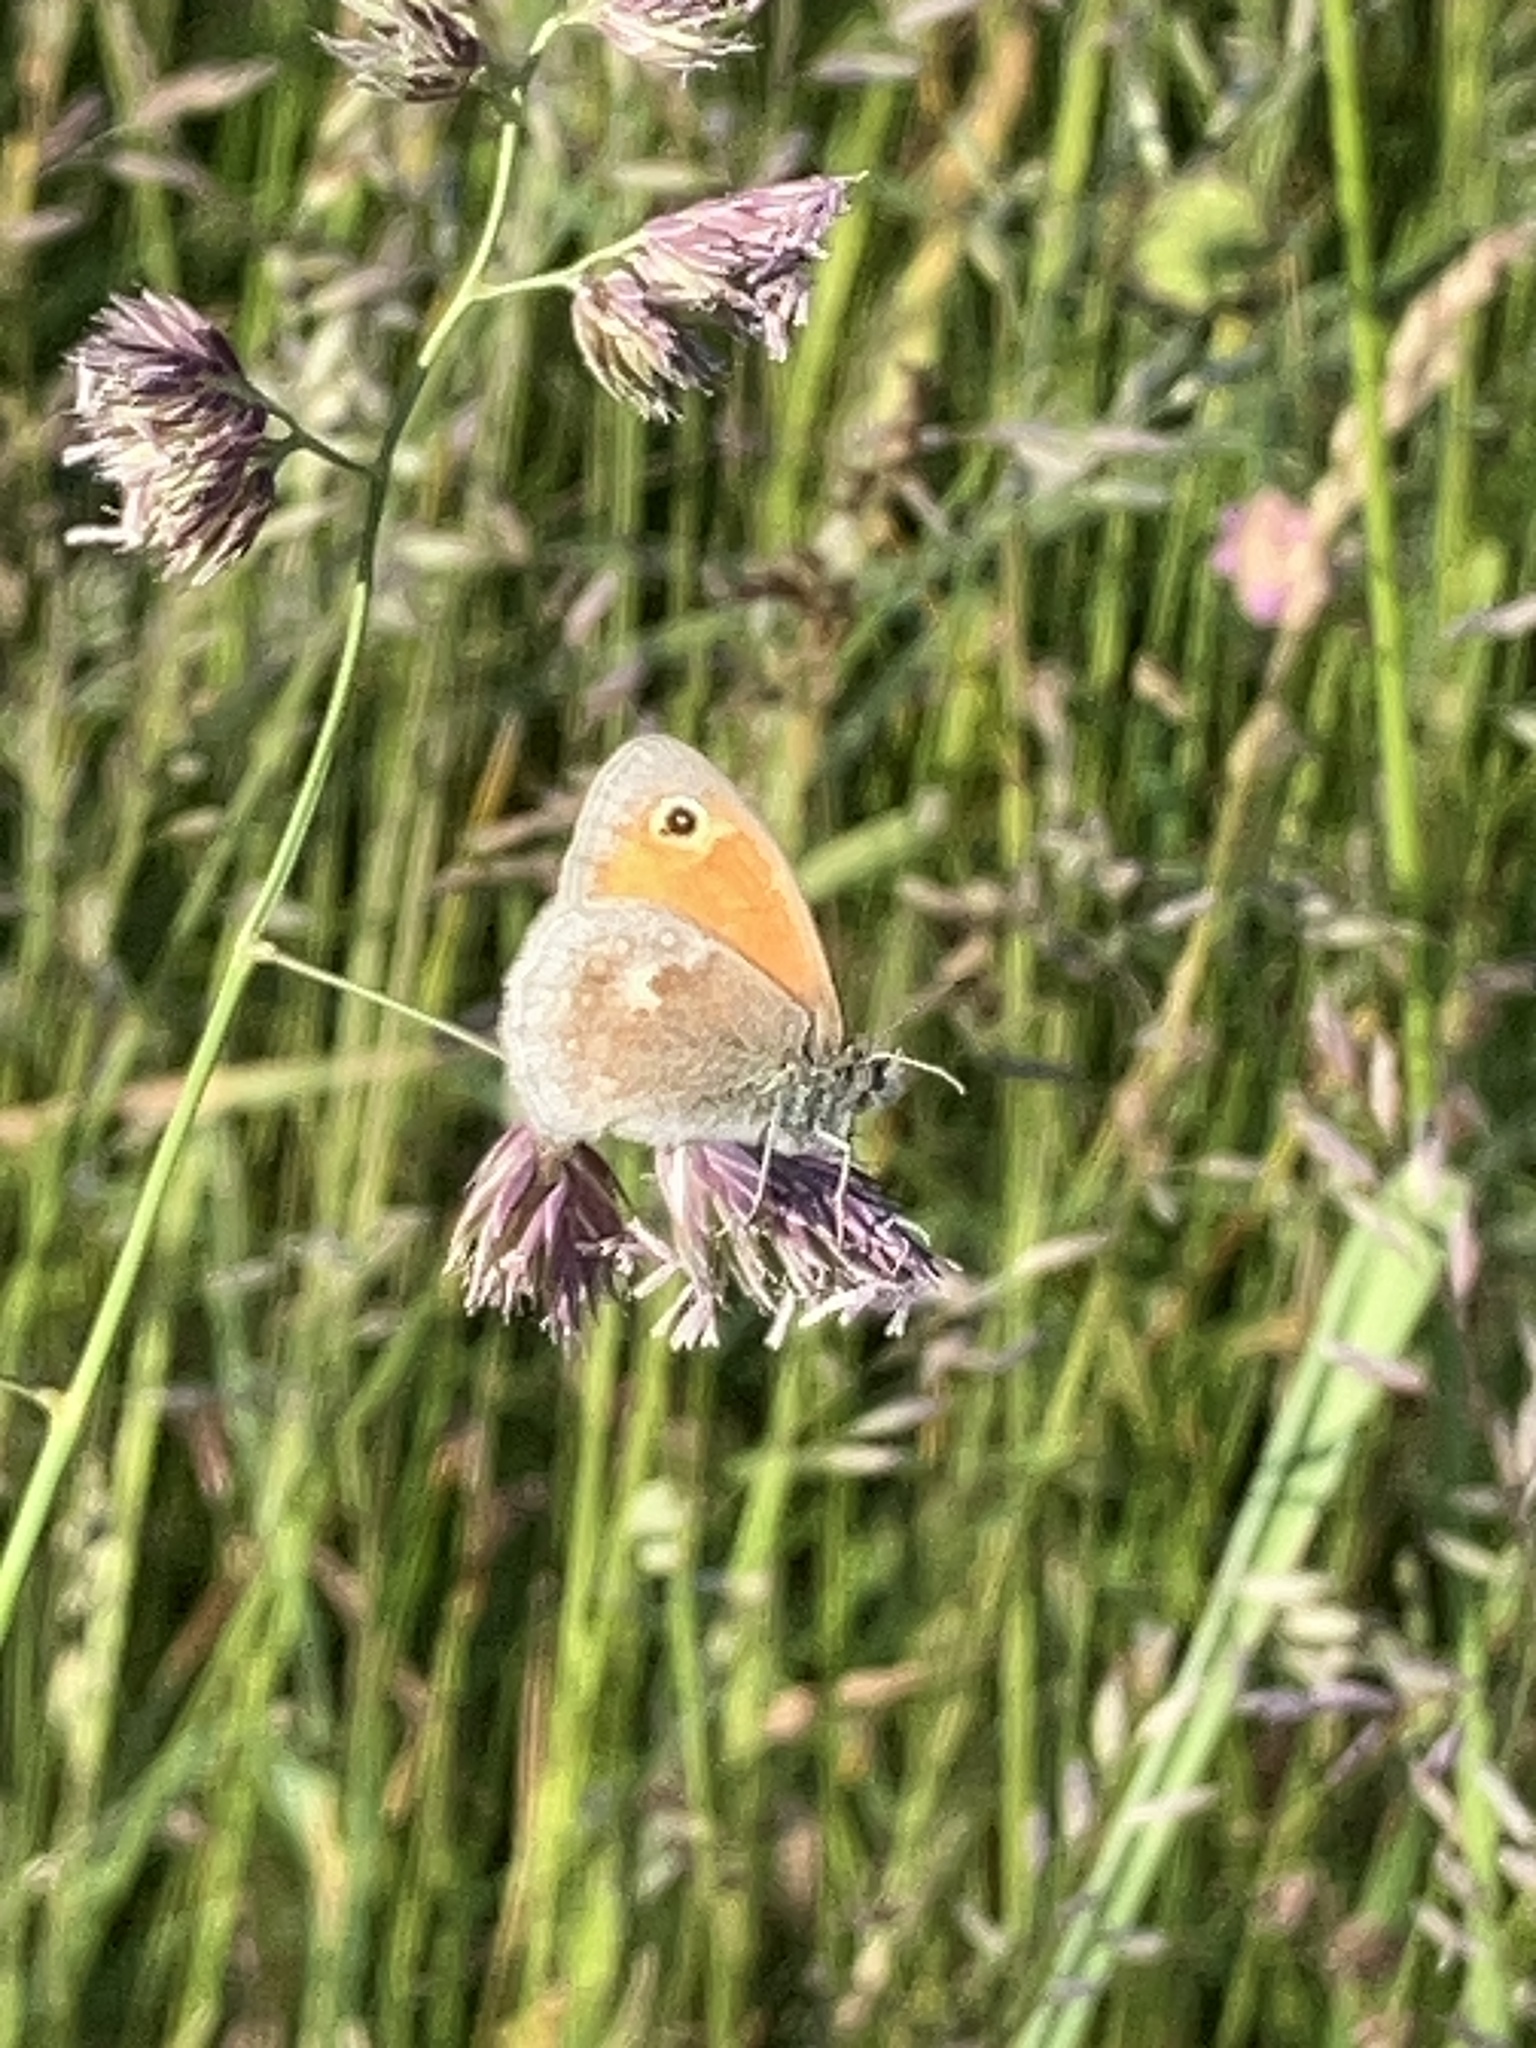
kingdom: Animalia
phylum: Arthropoda
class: Insecta
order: Lepidoptera
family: Nymphalidae
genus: Coenonympha
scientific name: Coenonympha pamphilus
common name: Small heath
